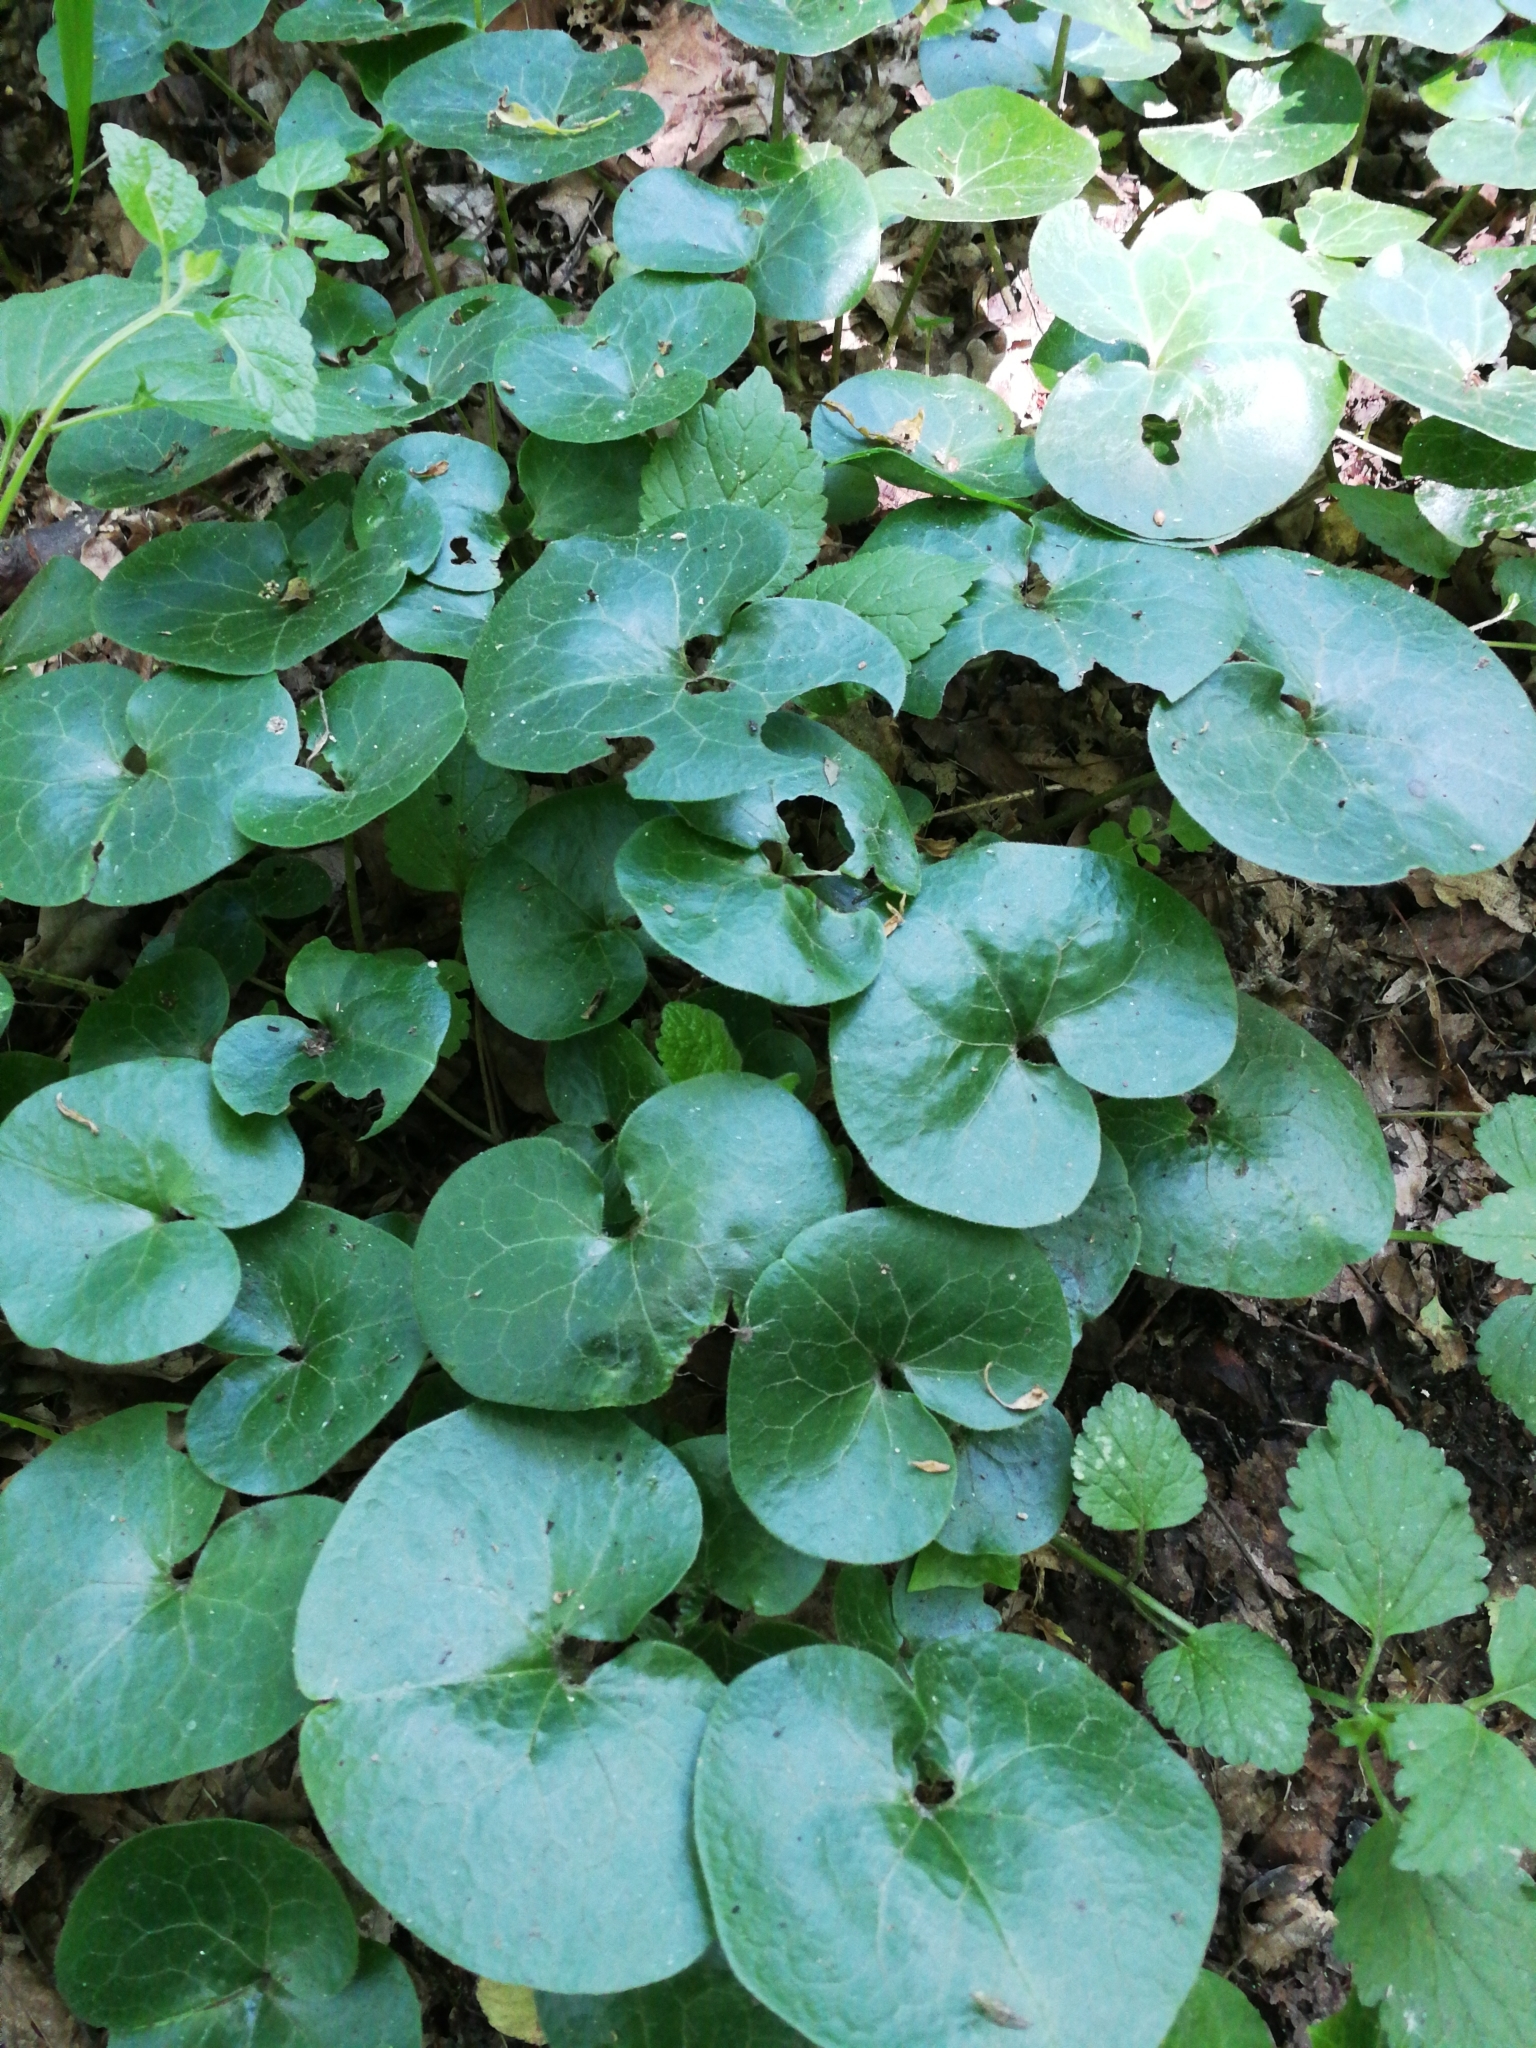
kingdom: Plantae
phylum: Tracheophyta
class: Magnoliopsida
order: Piperales
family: Aristolochiaceae
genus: Asarum
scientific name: Asarum europaeum
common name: Asarabacca
